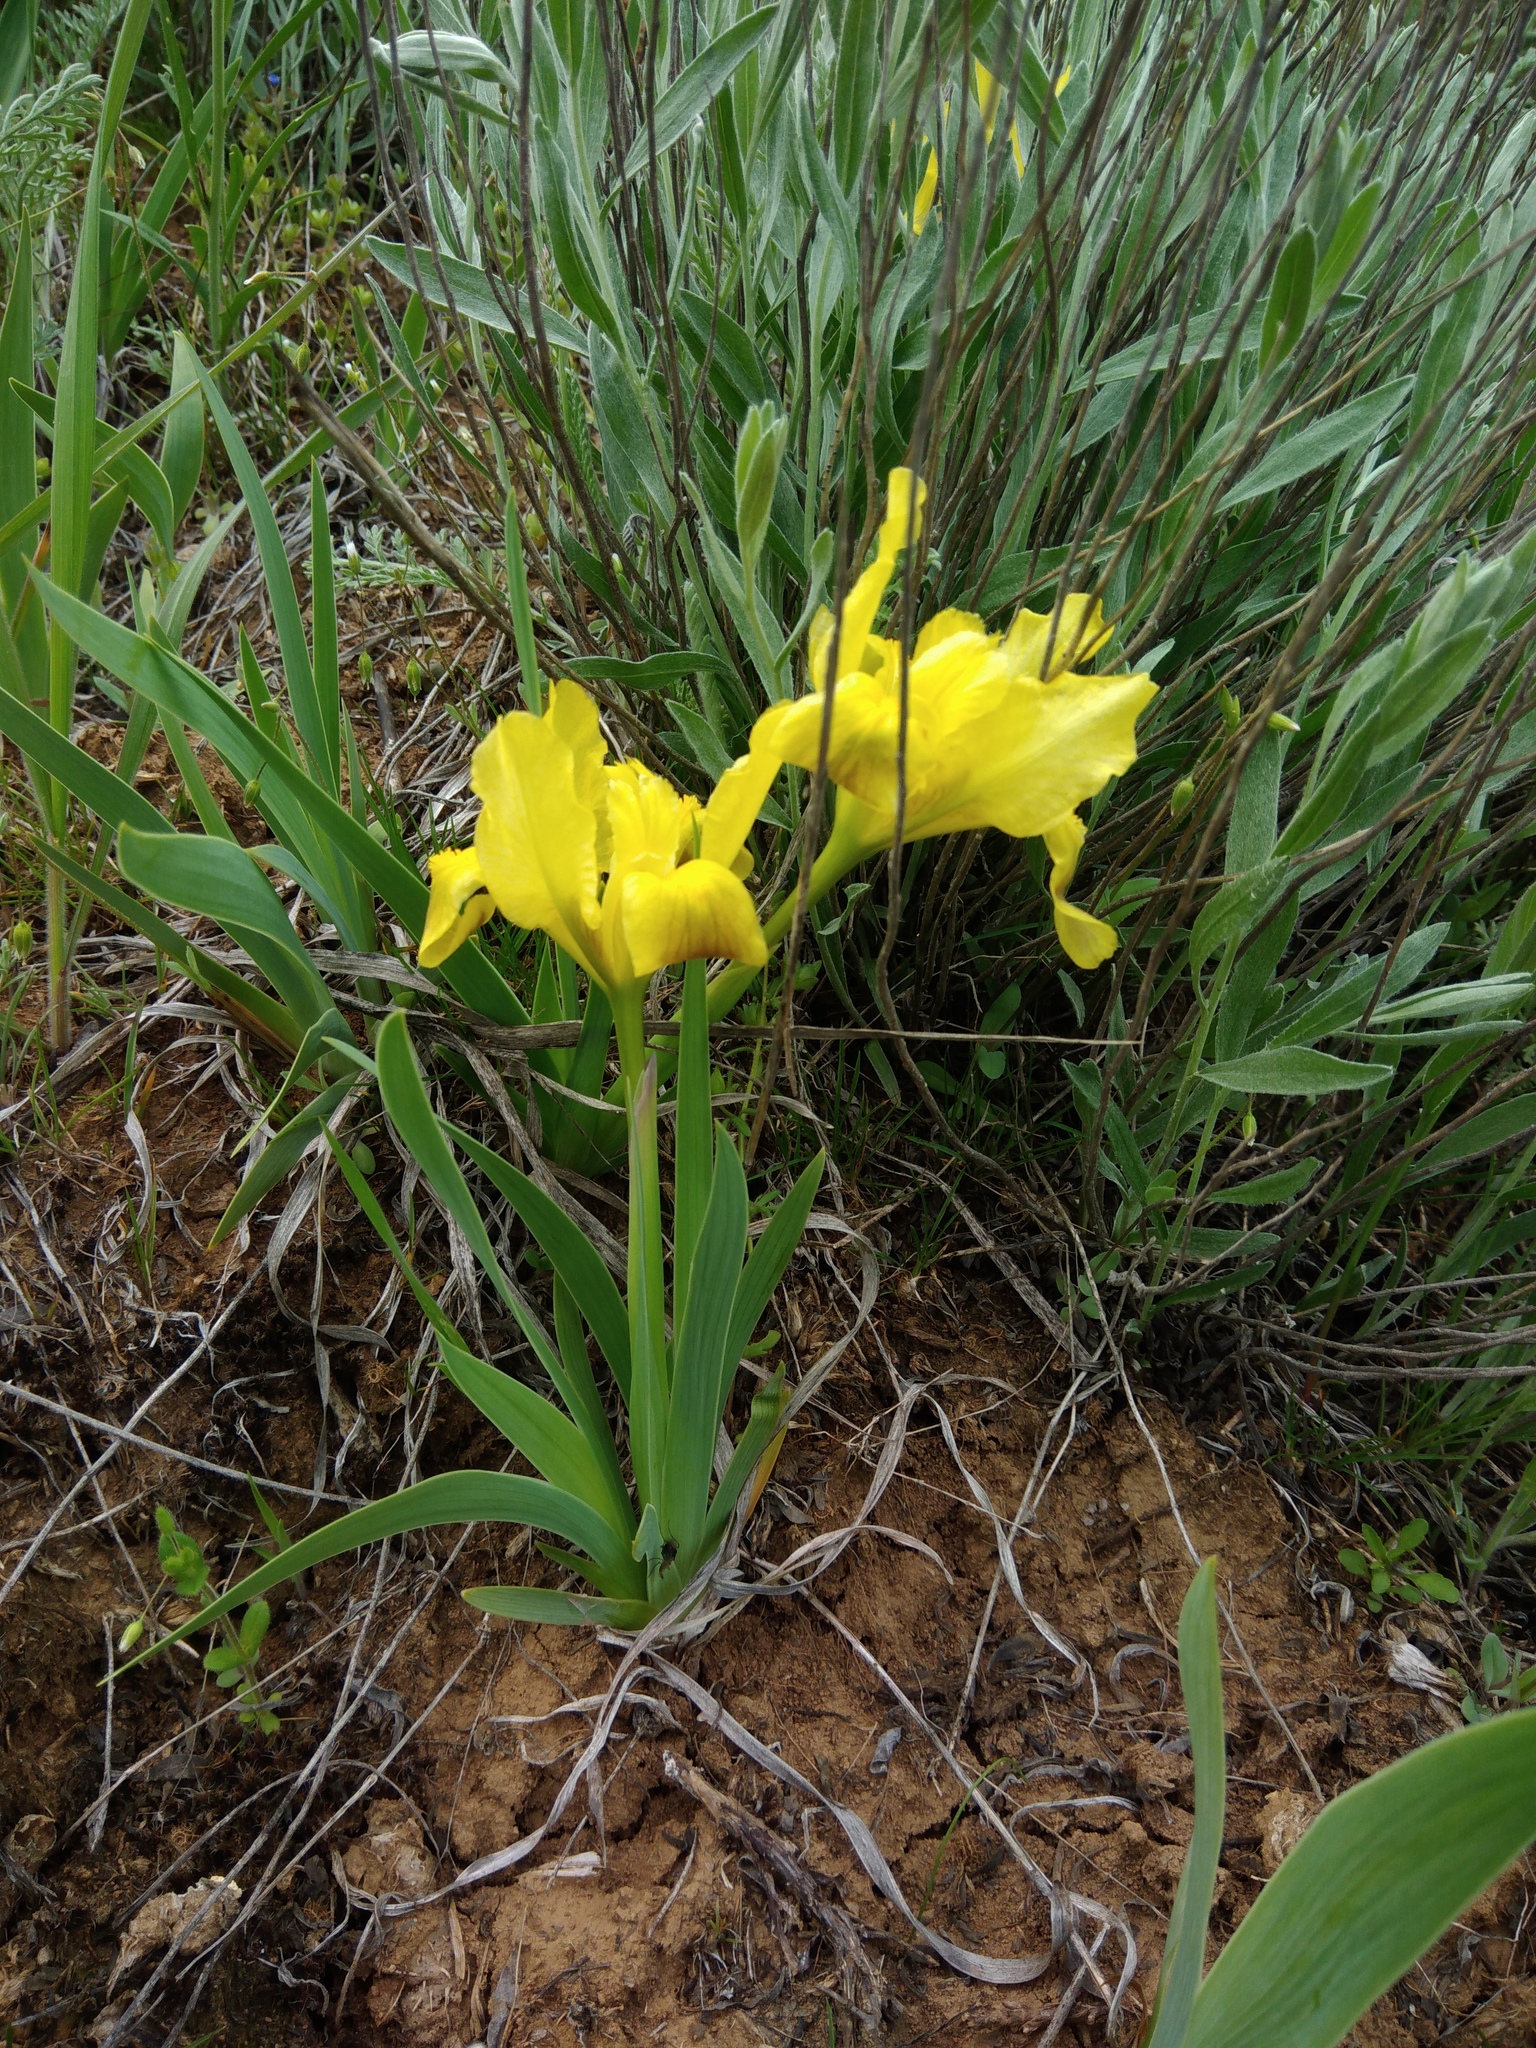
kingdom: Plantae
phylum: Tracheophyta
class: Liliopsida
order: Asparagales
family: Iridaceae
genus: Iris
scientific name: Iris pumila
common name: Dwarf iris
